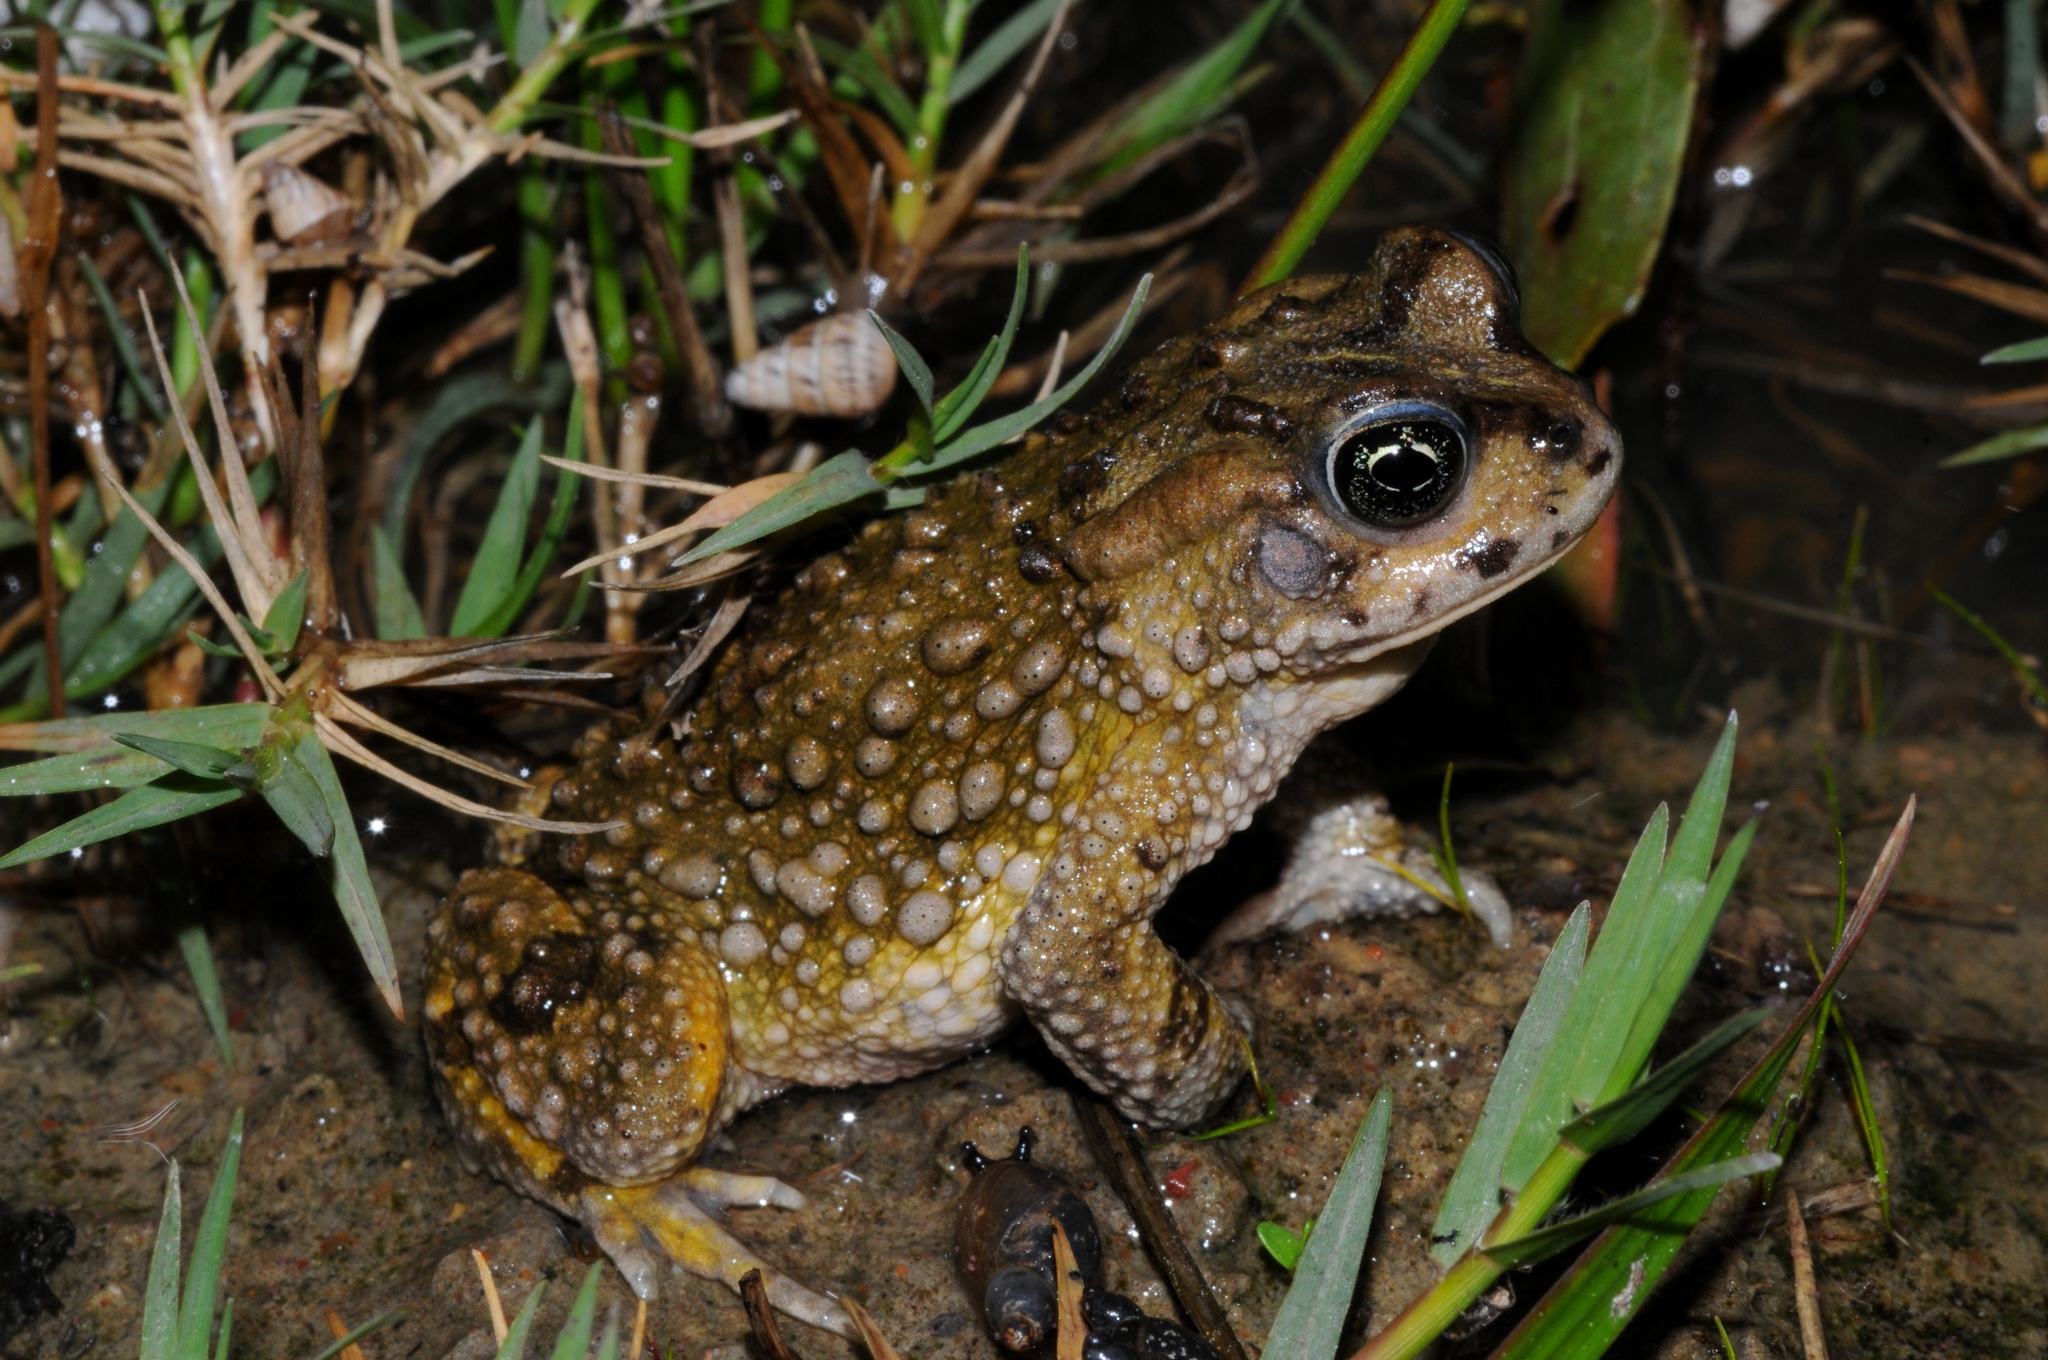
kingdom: Animalia
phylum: Chordata
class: Amphibia
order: Anura
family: Bufonidae
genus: Vandijkophrynus
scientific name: Vandijkophrynus angusticeps
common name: Sand toad
